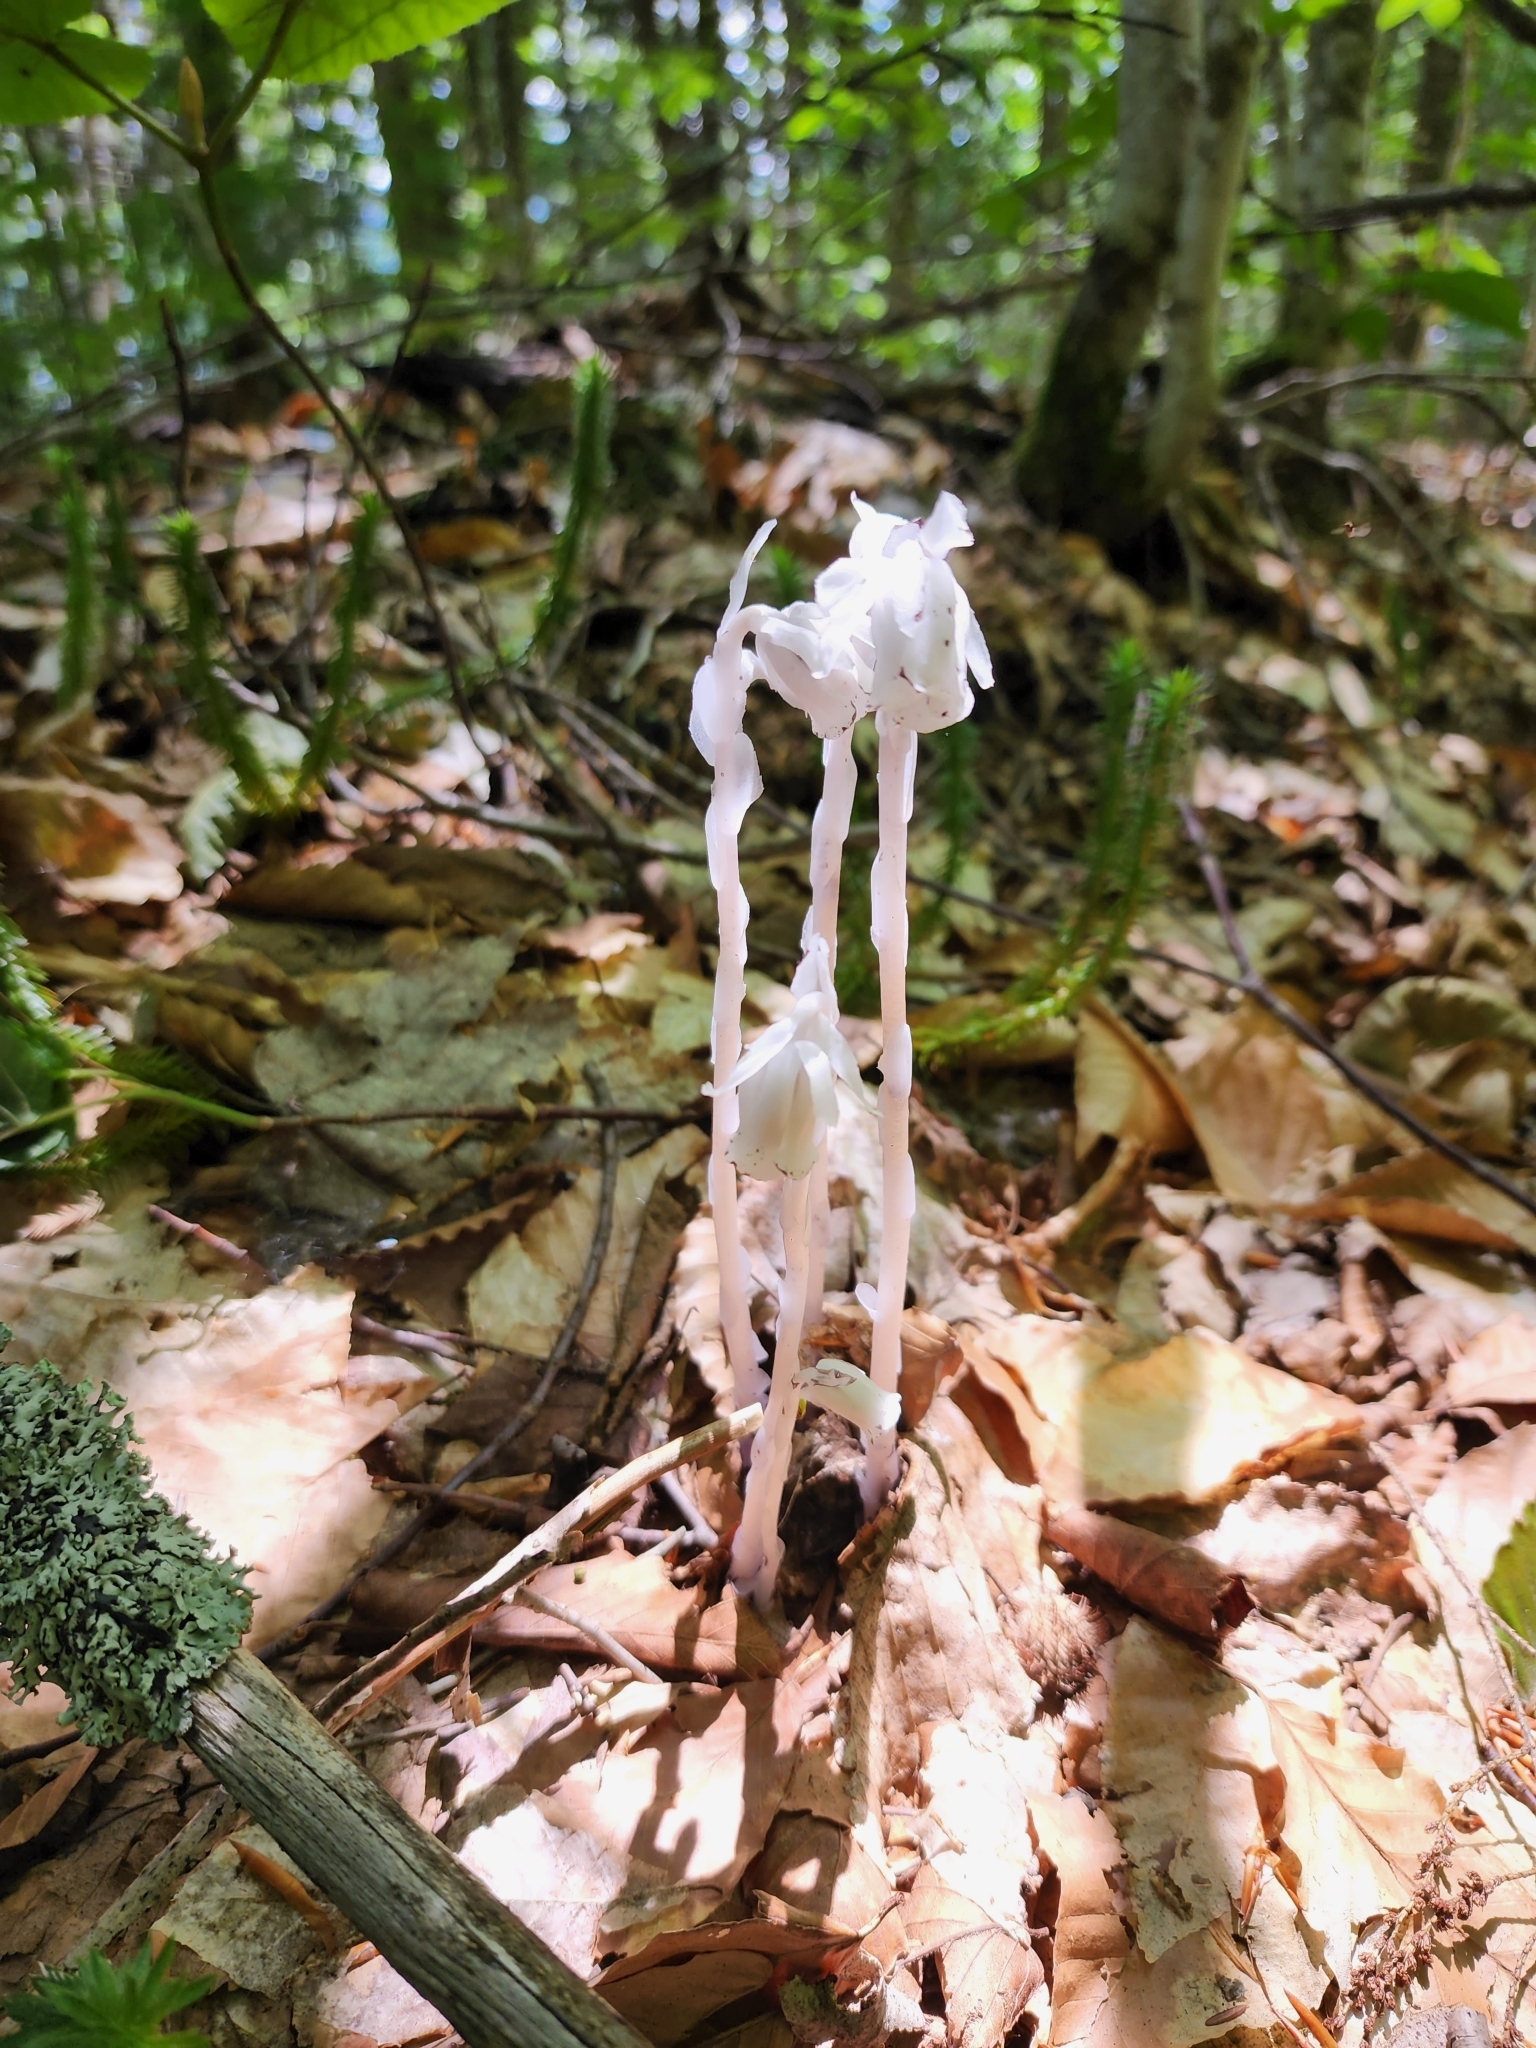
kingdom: Plantae
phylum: Tracheophyta
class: Magnoliopsida
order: Ericales
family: Ericaceae
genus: Monotropa
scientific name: Monotropa uniflora
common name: Convulsion root
